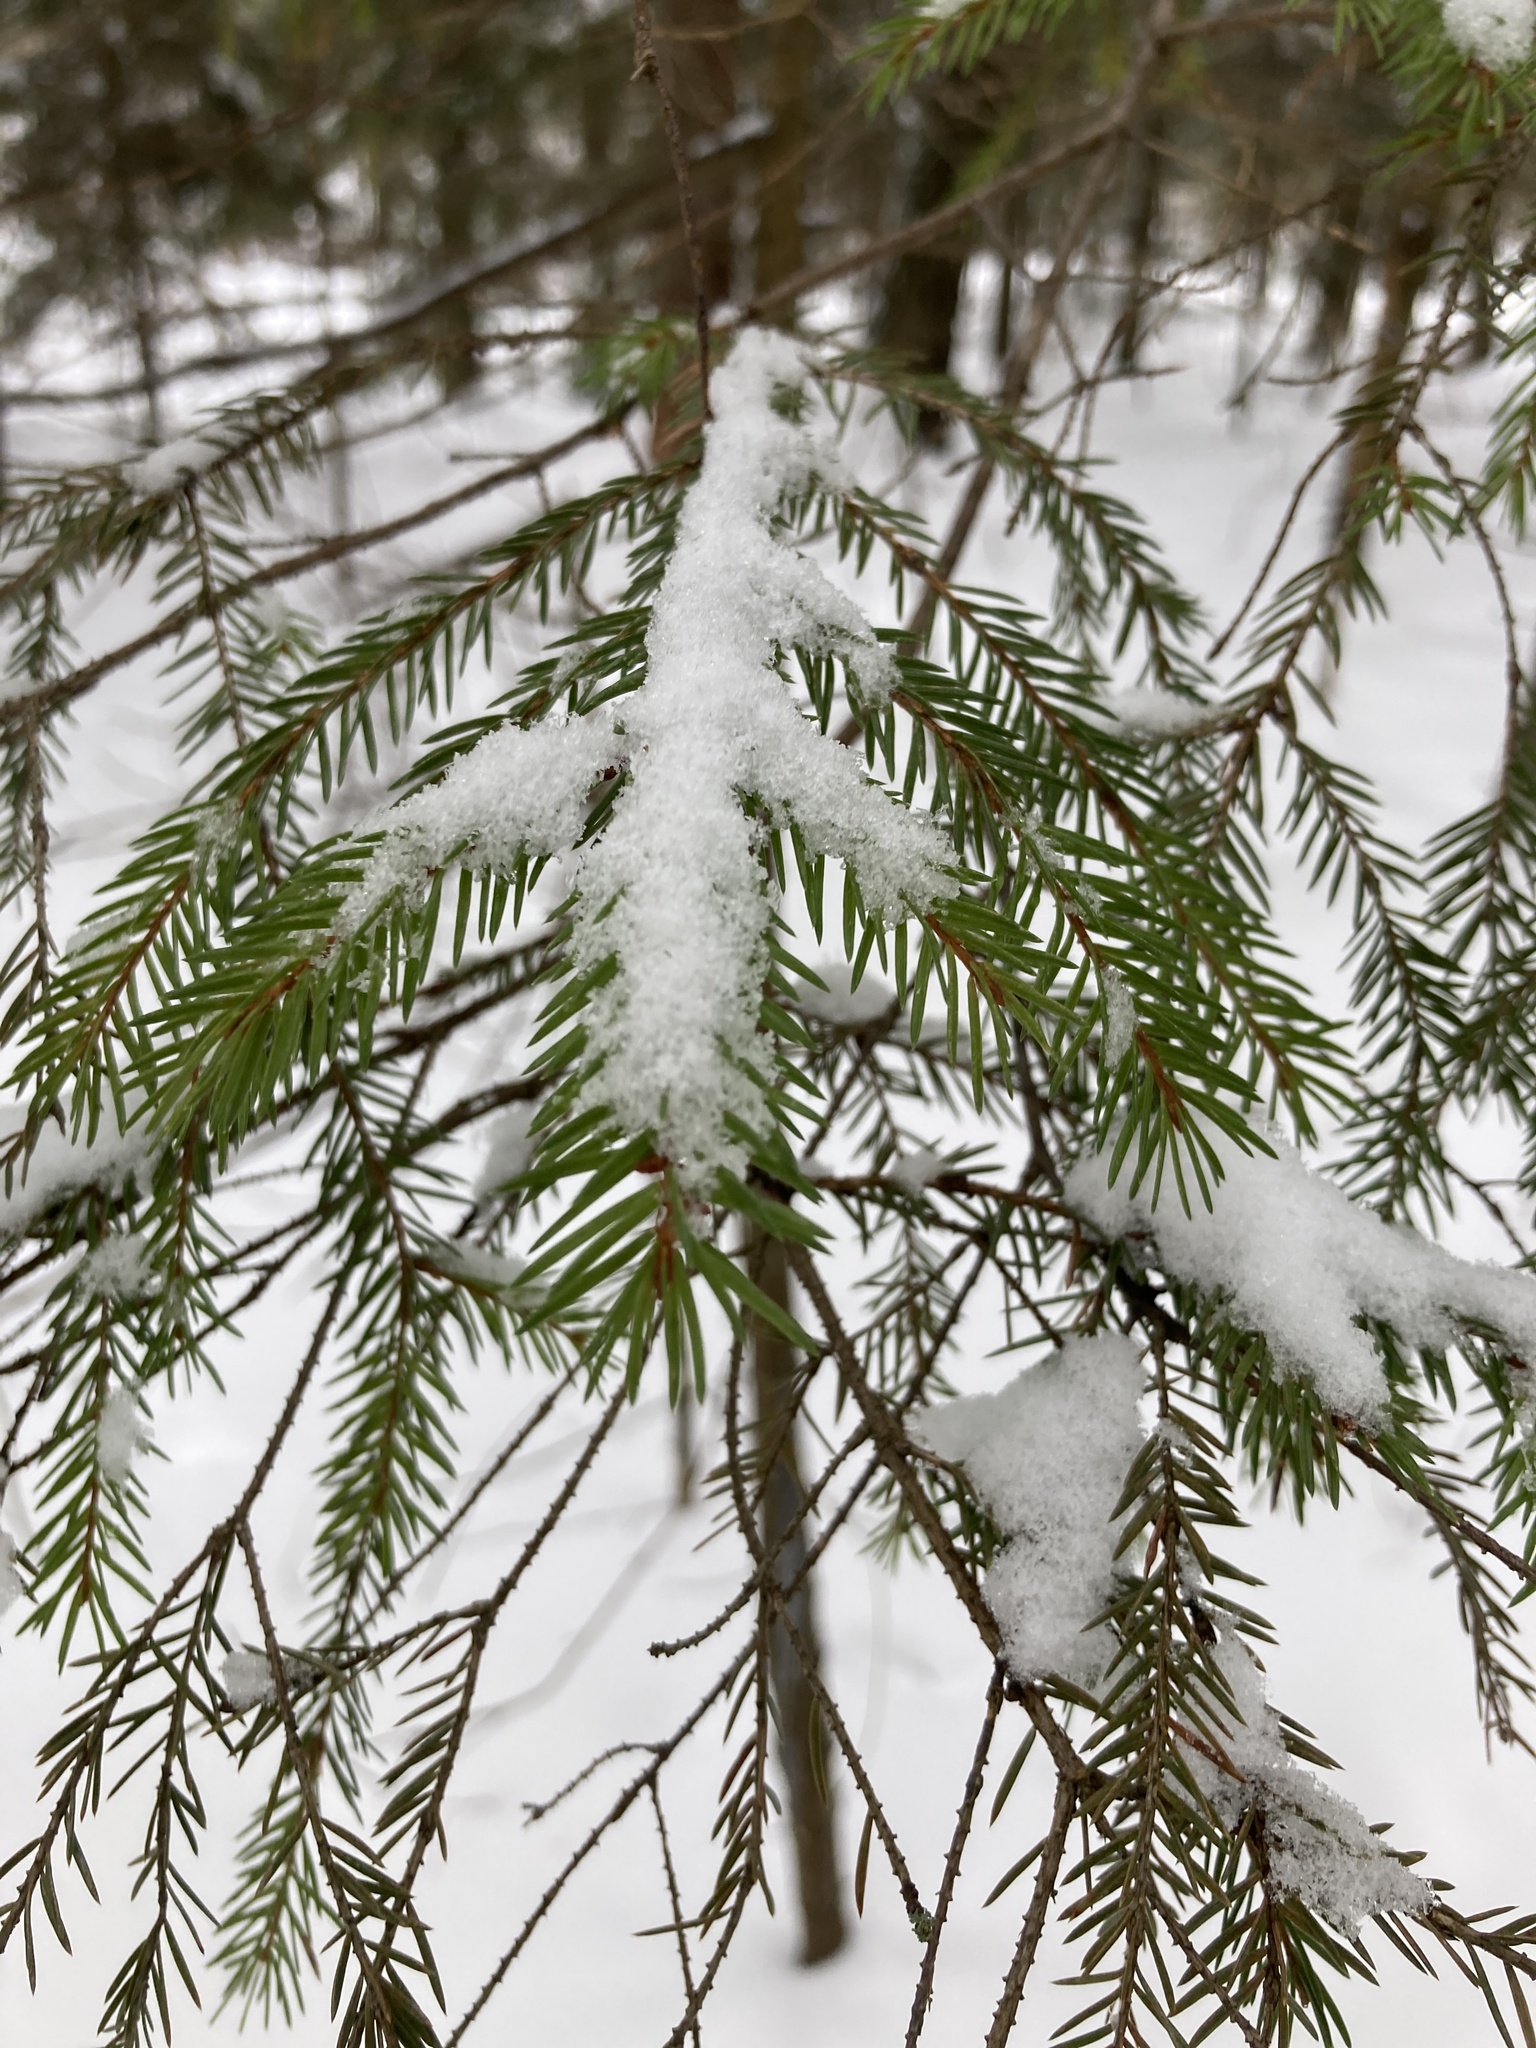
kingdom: Plantae
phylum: Tracheophyta
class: Pinopsida
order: Pinales
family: Pinaceae
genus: Picea
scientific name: Picea abies
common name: Norway spruce
